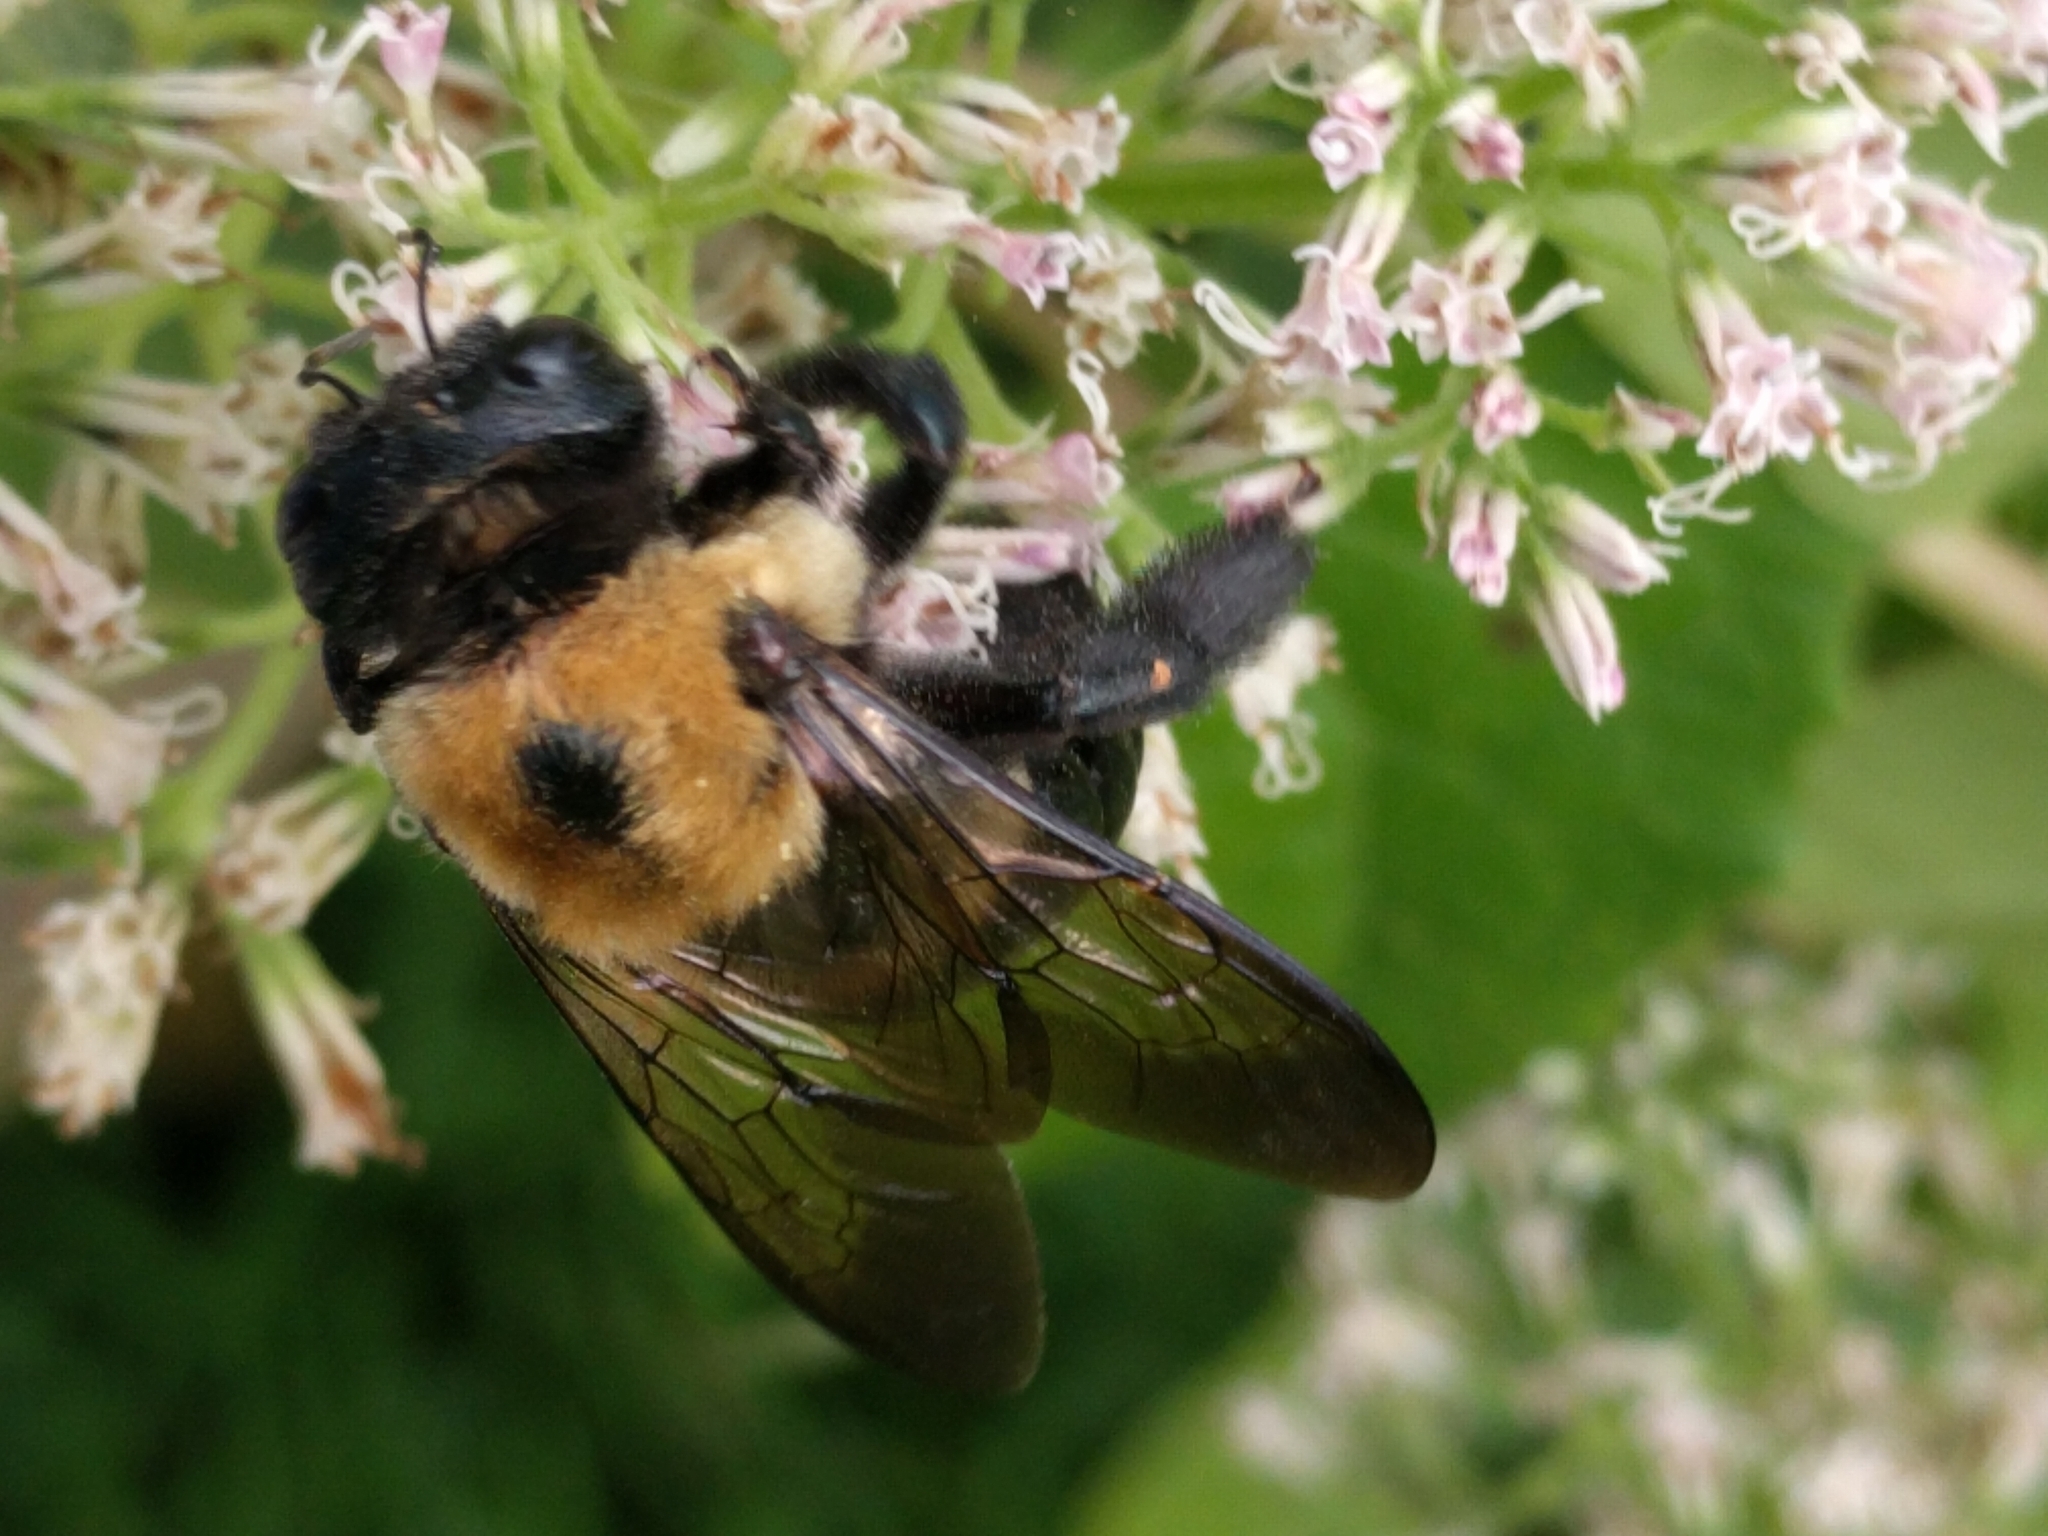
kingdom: Animalia
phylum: Arthropoda
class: Insecta
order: Hymenoptera
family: Apidae
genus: Xylocopa
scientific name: Xylocopa virginica
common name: Carpenter bee
